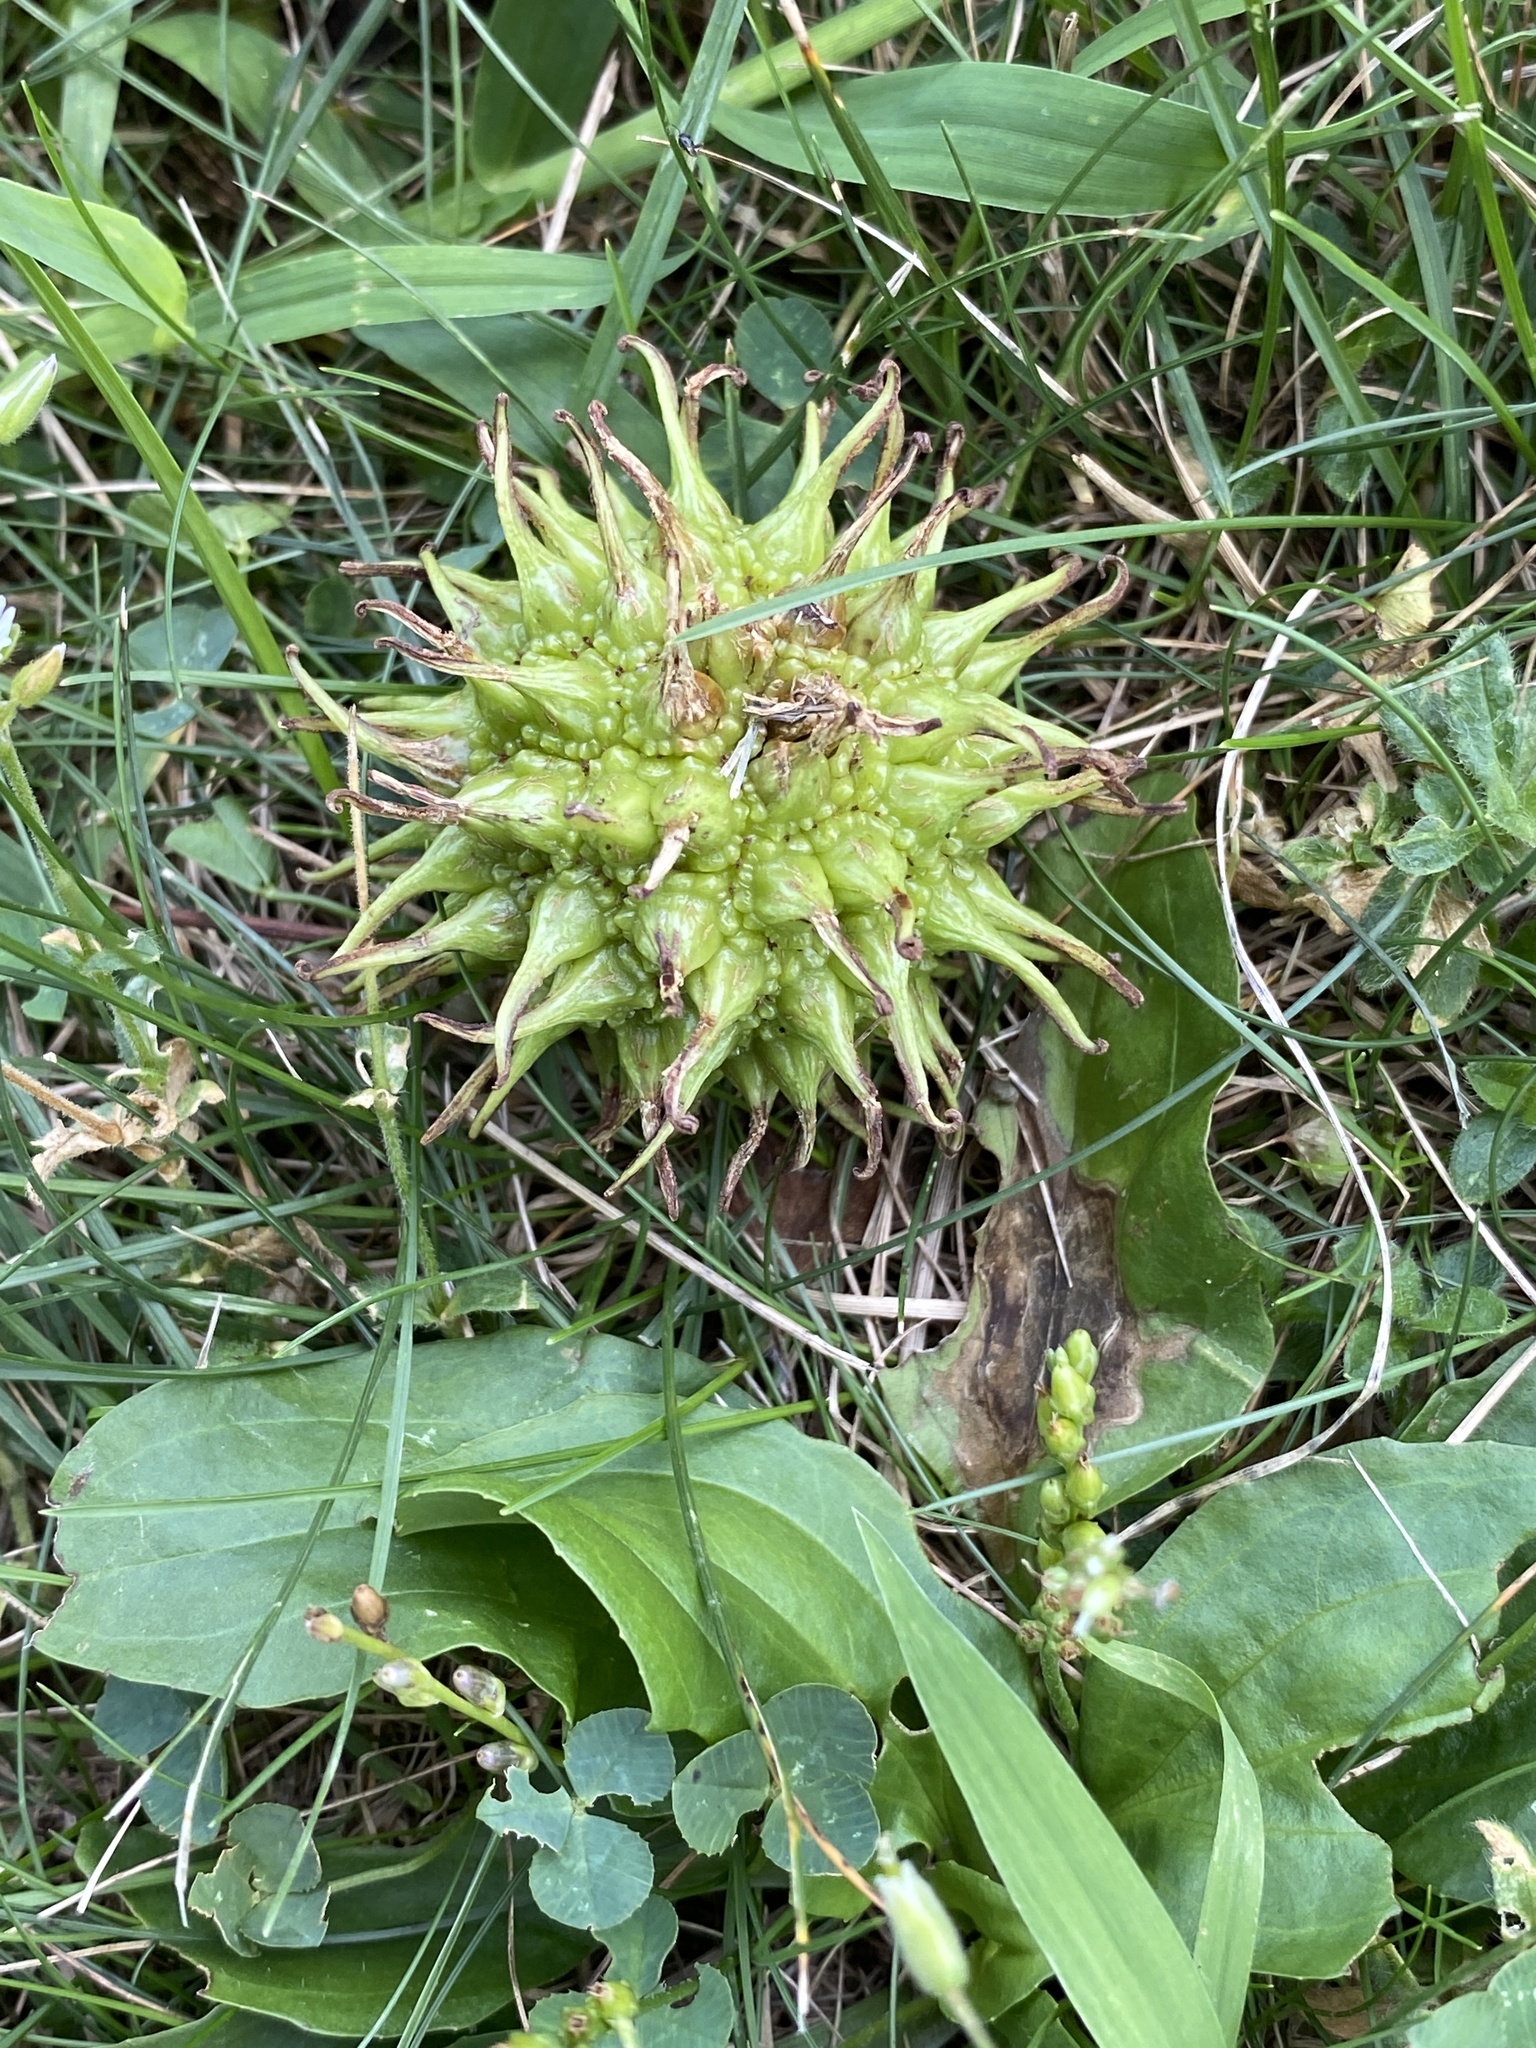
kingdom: Plantae
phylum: Tracheophyta
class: Magnoliopsida
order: Saxifragales
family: Altingiaceae
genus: Liquidambar
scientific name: Liquidambar styraciflua
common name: Sweet gum
